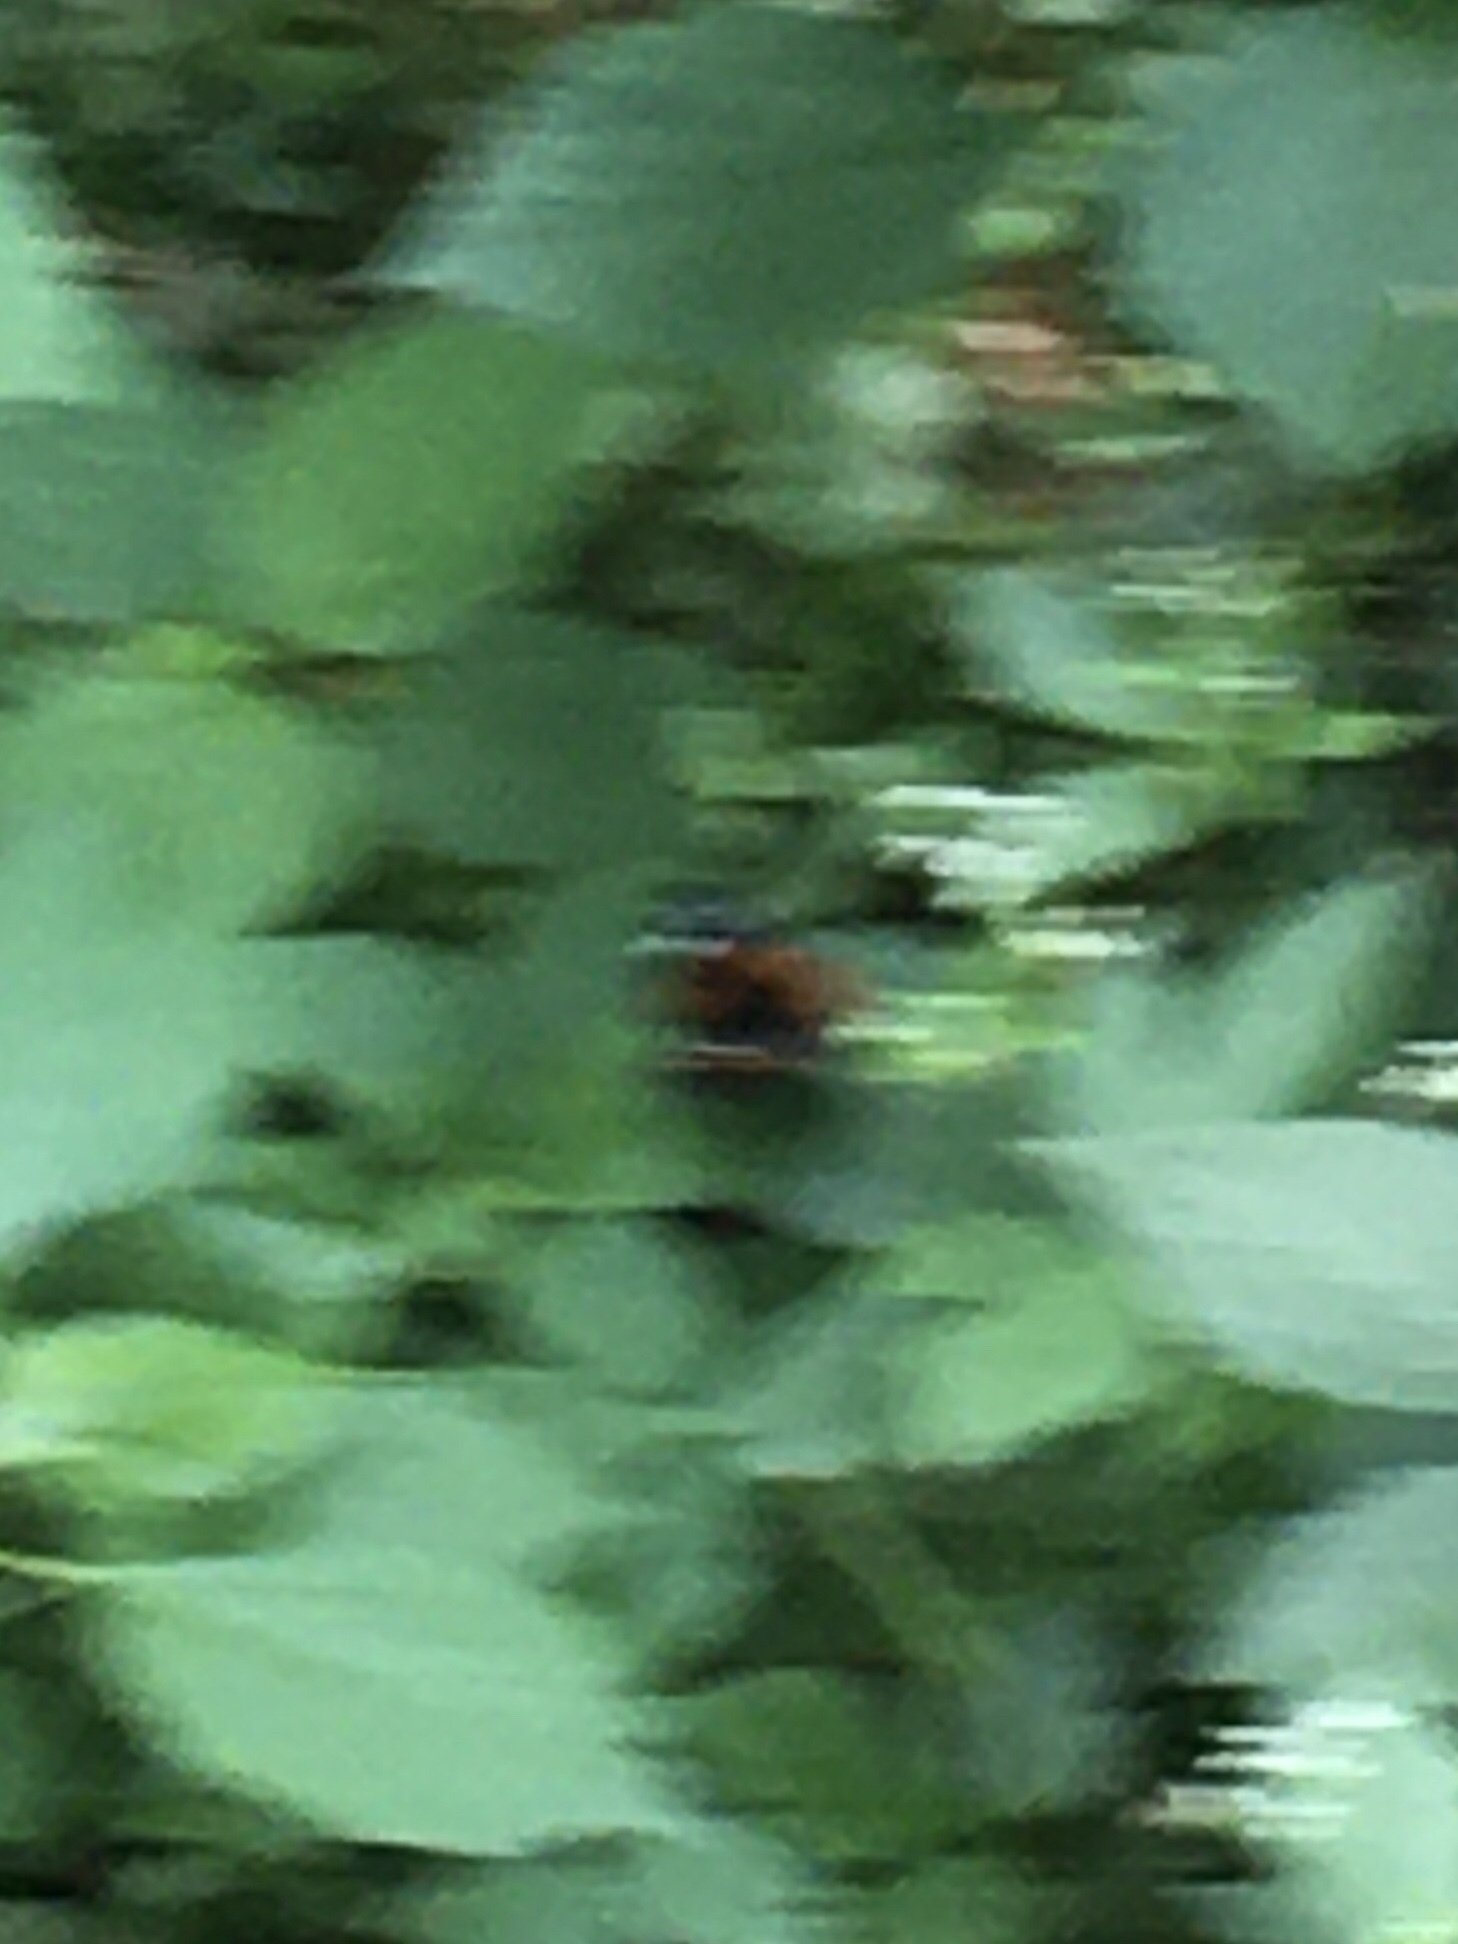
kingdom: Animalia
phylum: Arthropoda
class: Insecta
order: Lepidoptera
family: Nymphalidae
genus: Vanessa
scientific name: Vanessa atalanta
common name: Red admiral
